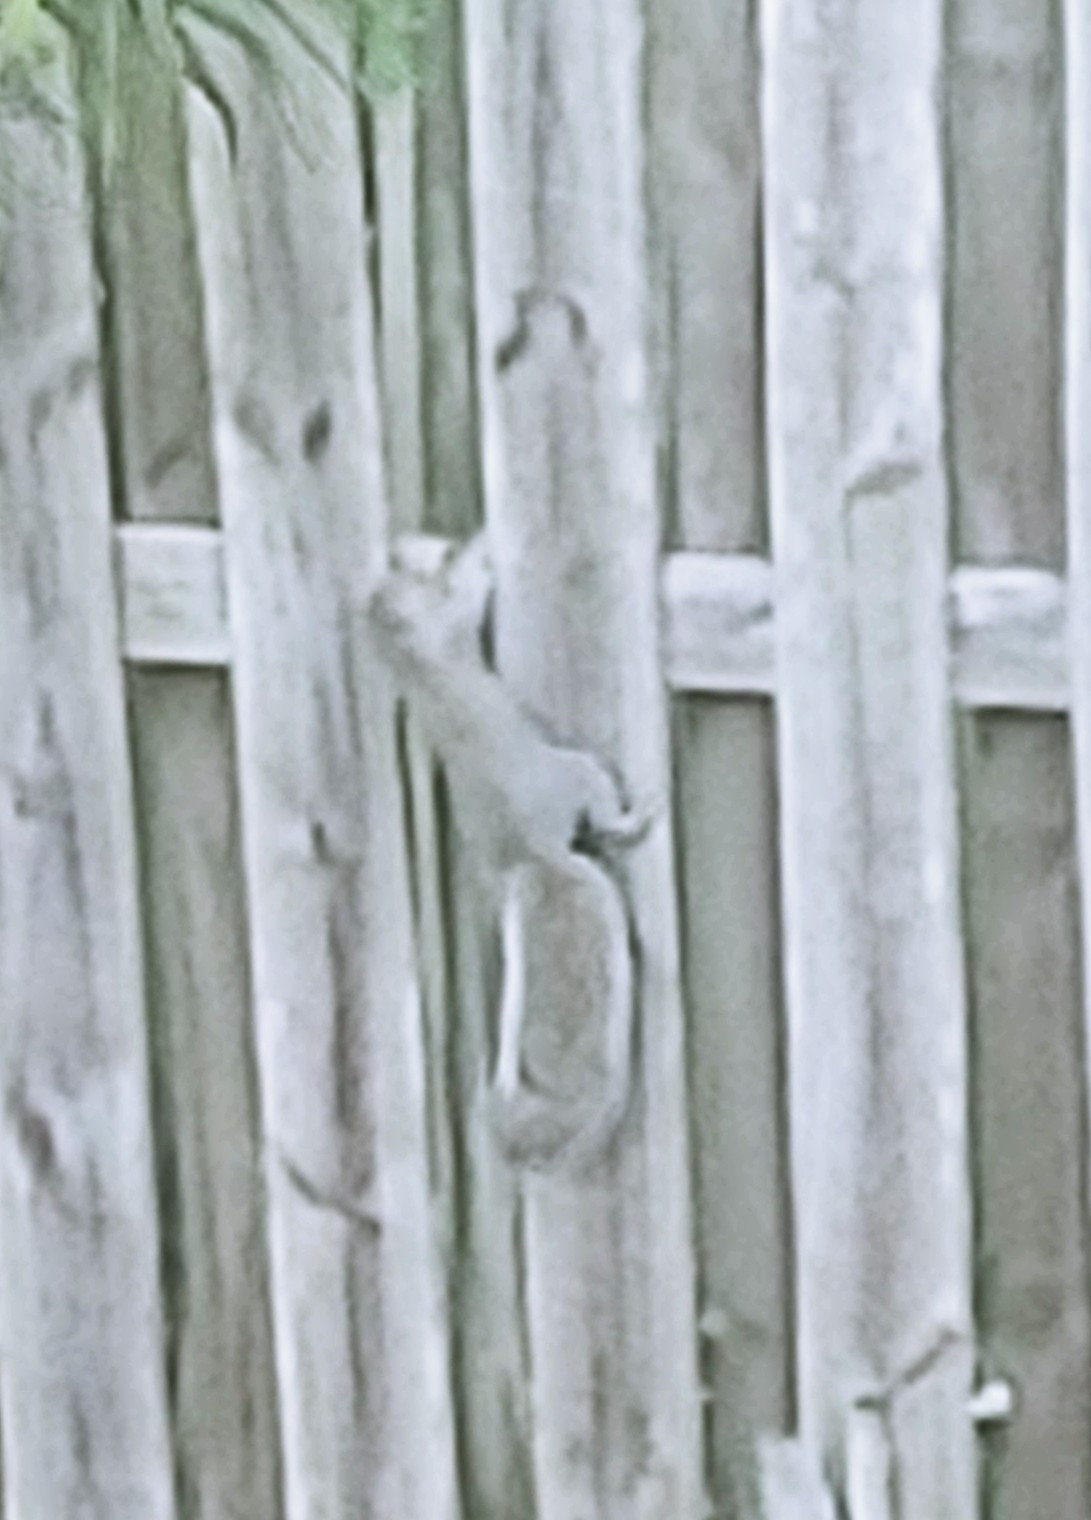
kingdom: Animalia
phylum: Chordata
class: Mammalia
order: Rodentia
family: Sciuridae
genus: Sciurus
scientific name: Sciurus carolinensis
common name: Eastern gray squirrel
